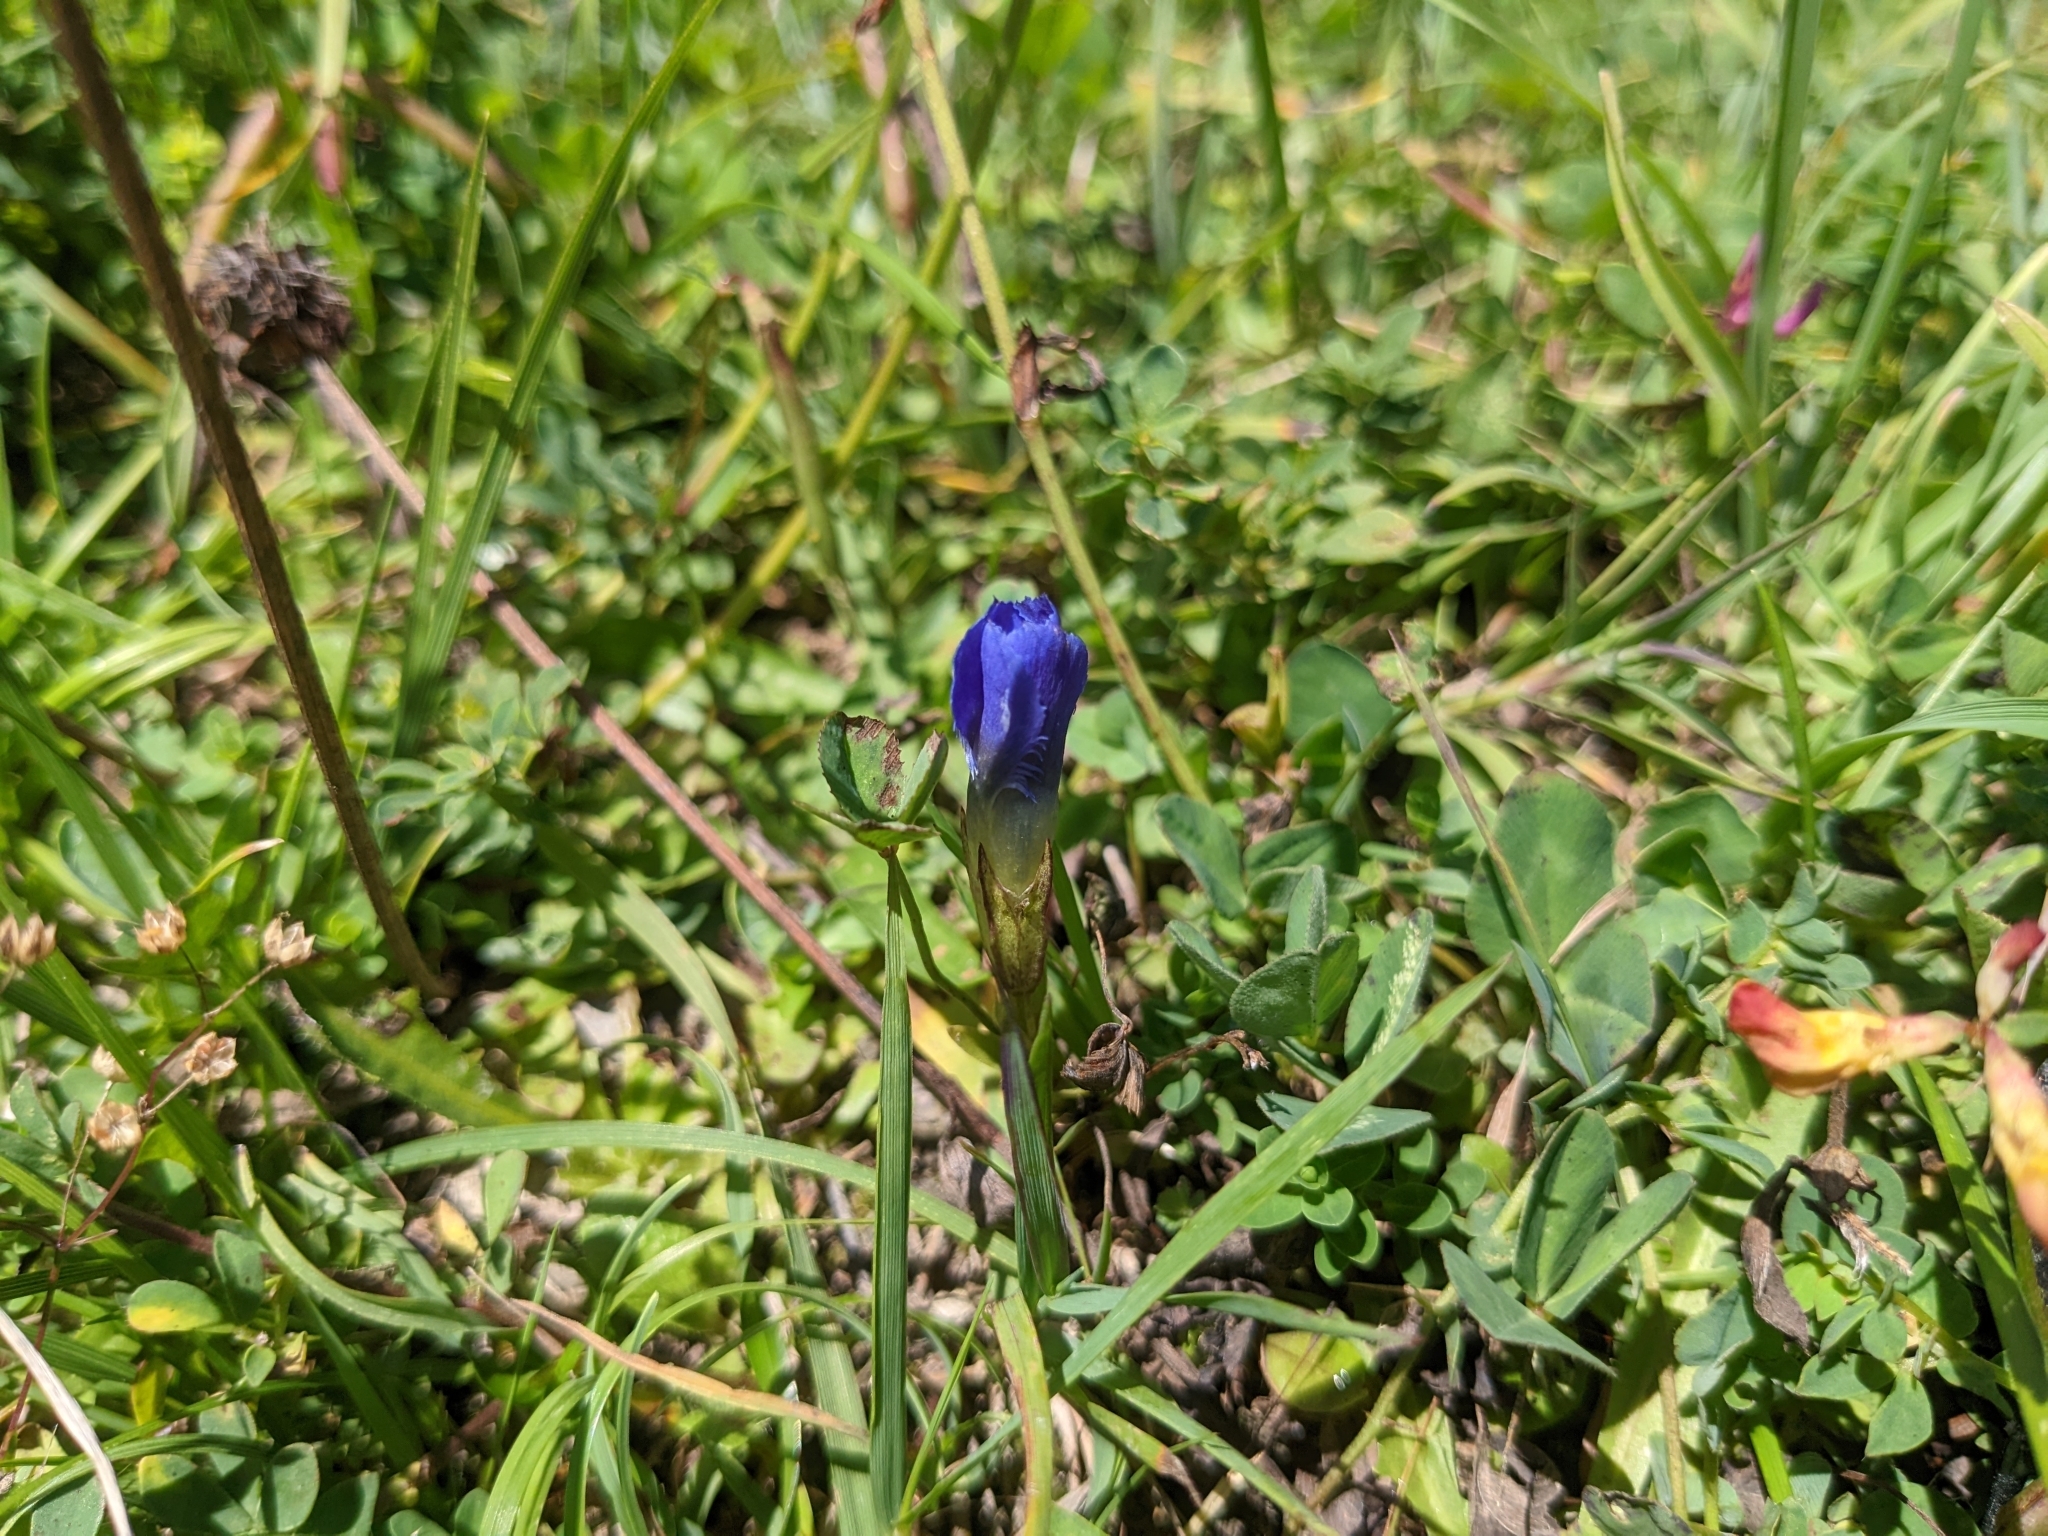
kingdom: Plantae
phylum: Tracheophyta
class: Magnoliopsida
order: Gentianales
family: Gentianaceae
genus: Gentianopsis
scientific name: Gentianopsis ciliata
